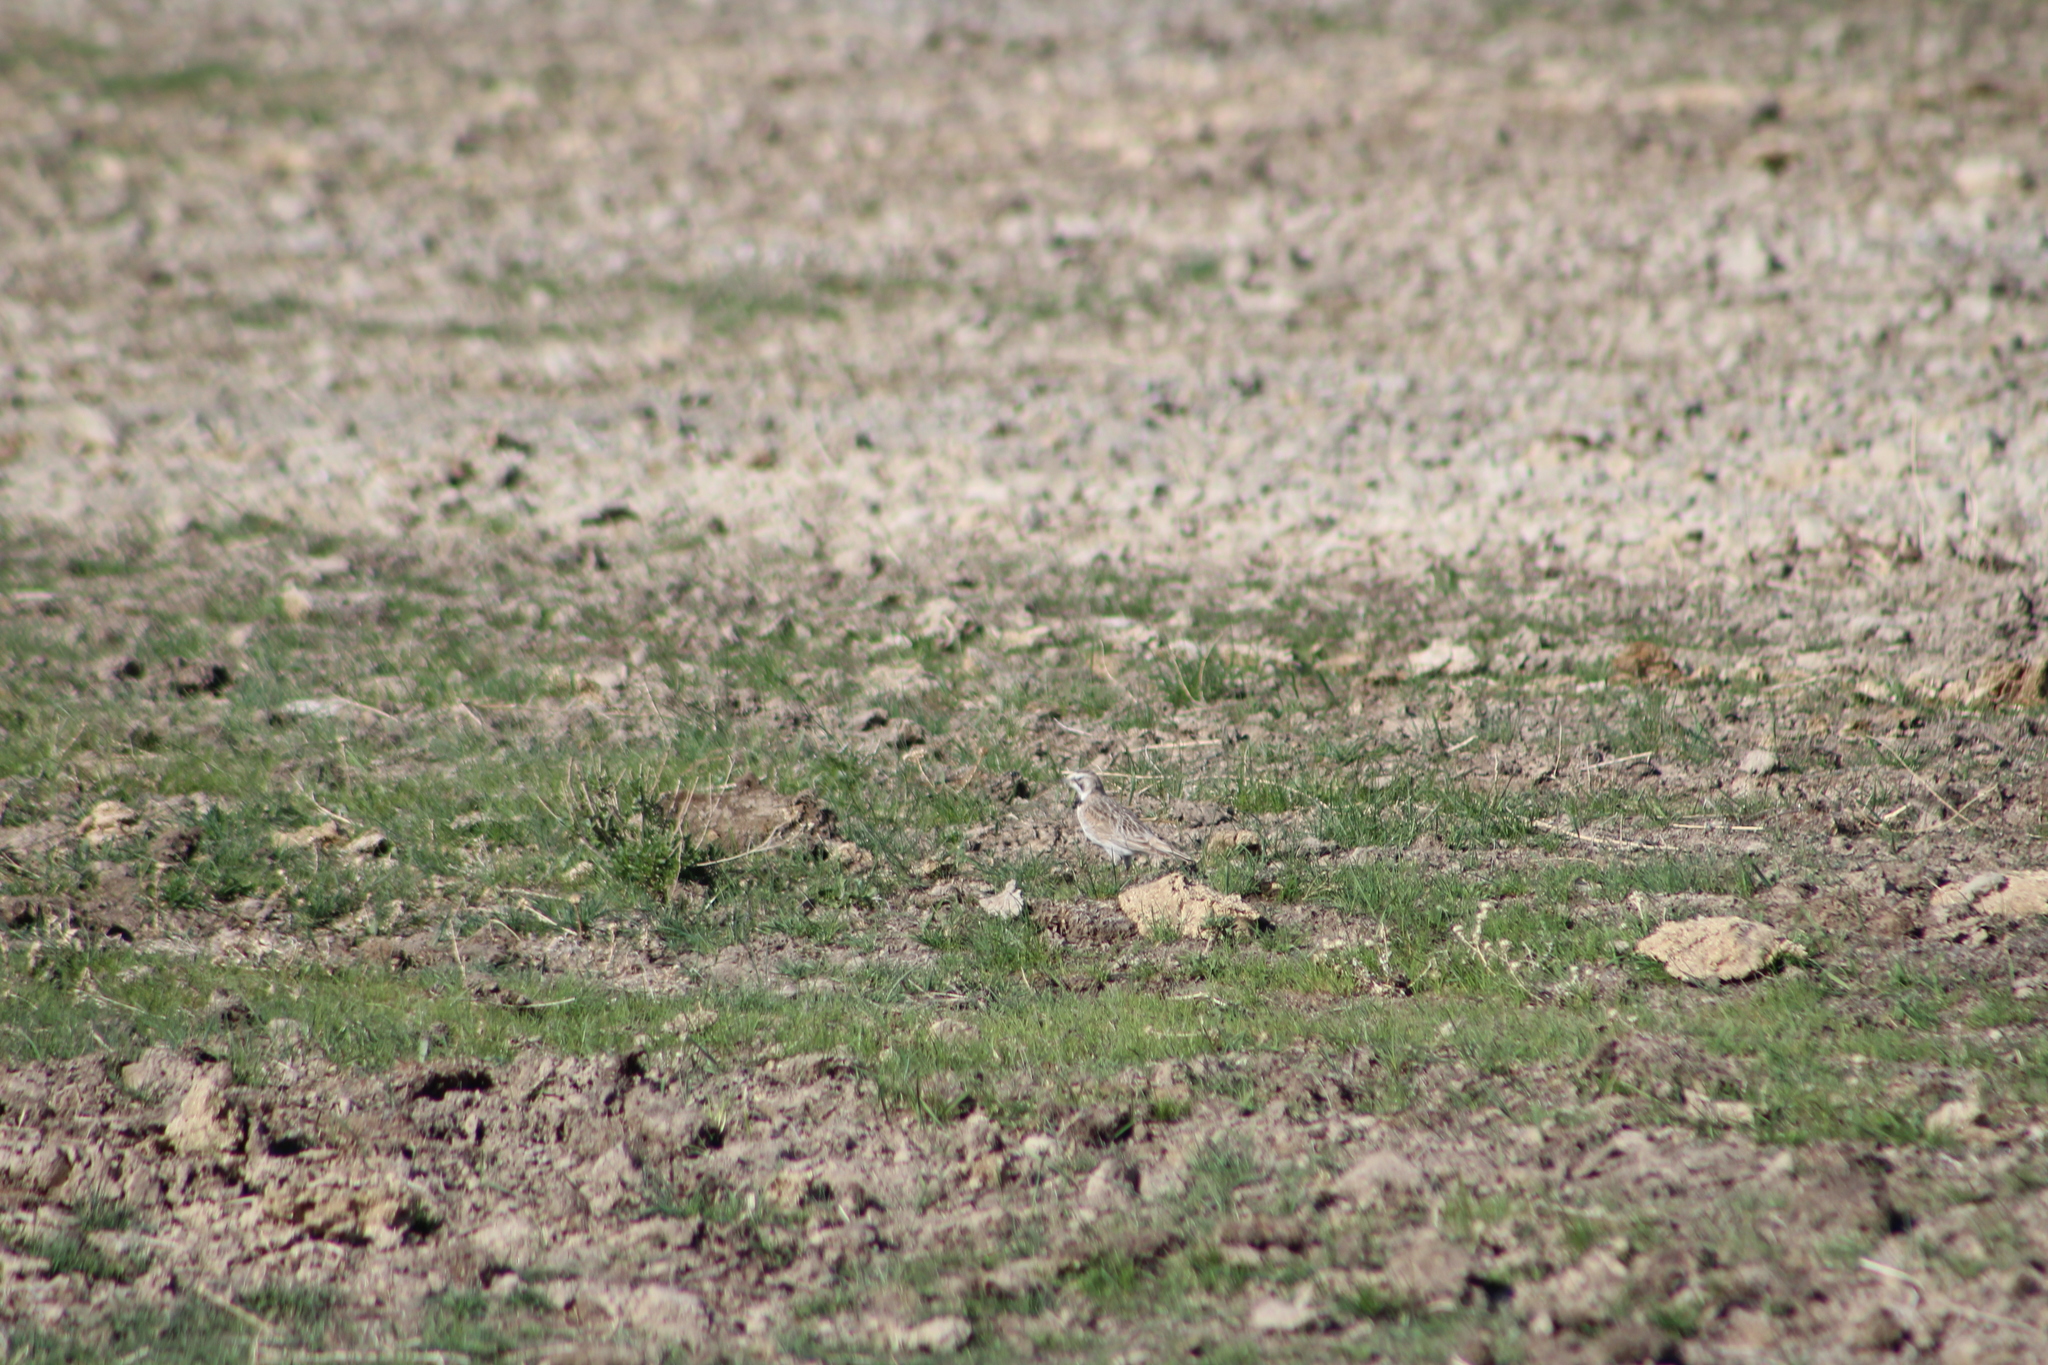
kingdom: Animalia
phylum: Chordata
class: Aves
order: Passeriformes
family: Alaudidae
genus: Eremophila
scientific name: Eremophila alpestris
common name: Horned lark
